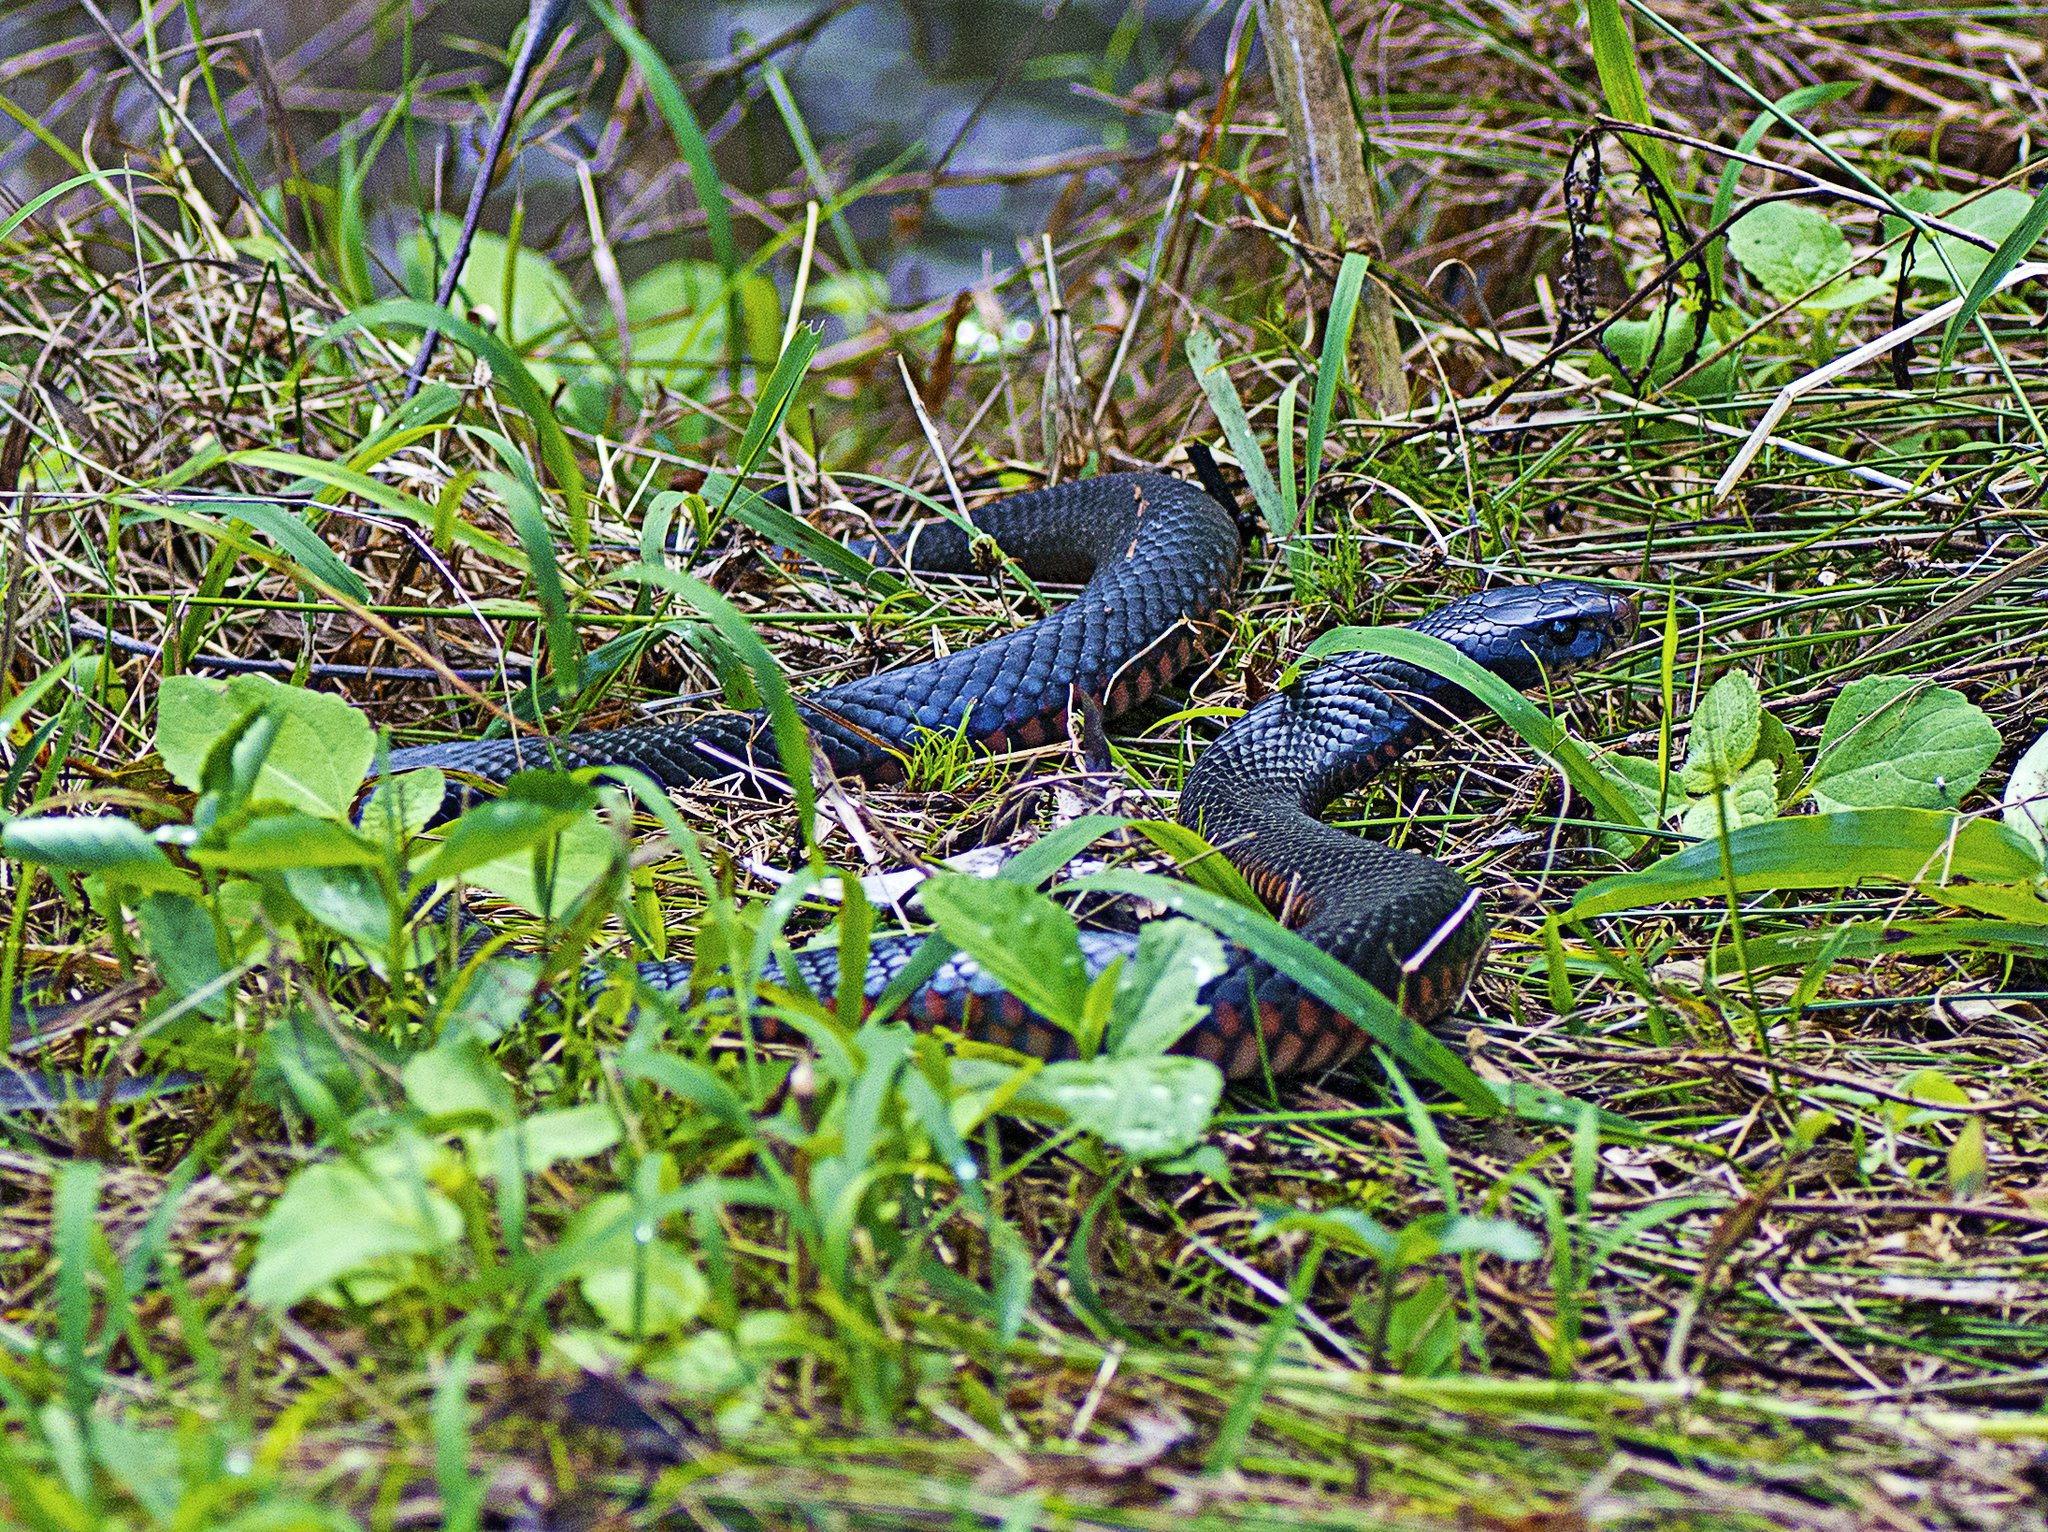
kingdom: Animalia
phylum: Chordata
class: Squamata
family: Elapidae
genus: Pseudechis
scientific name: Pseudechis porphyriacus
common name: Australian black snake
